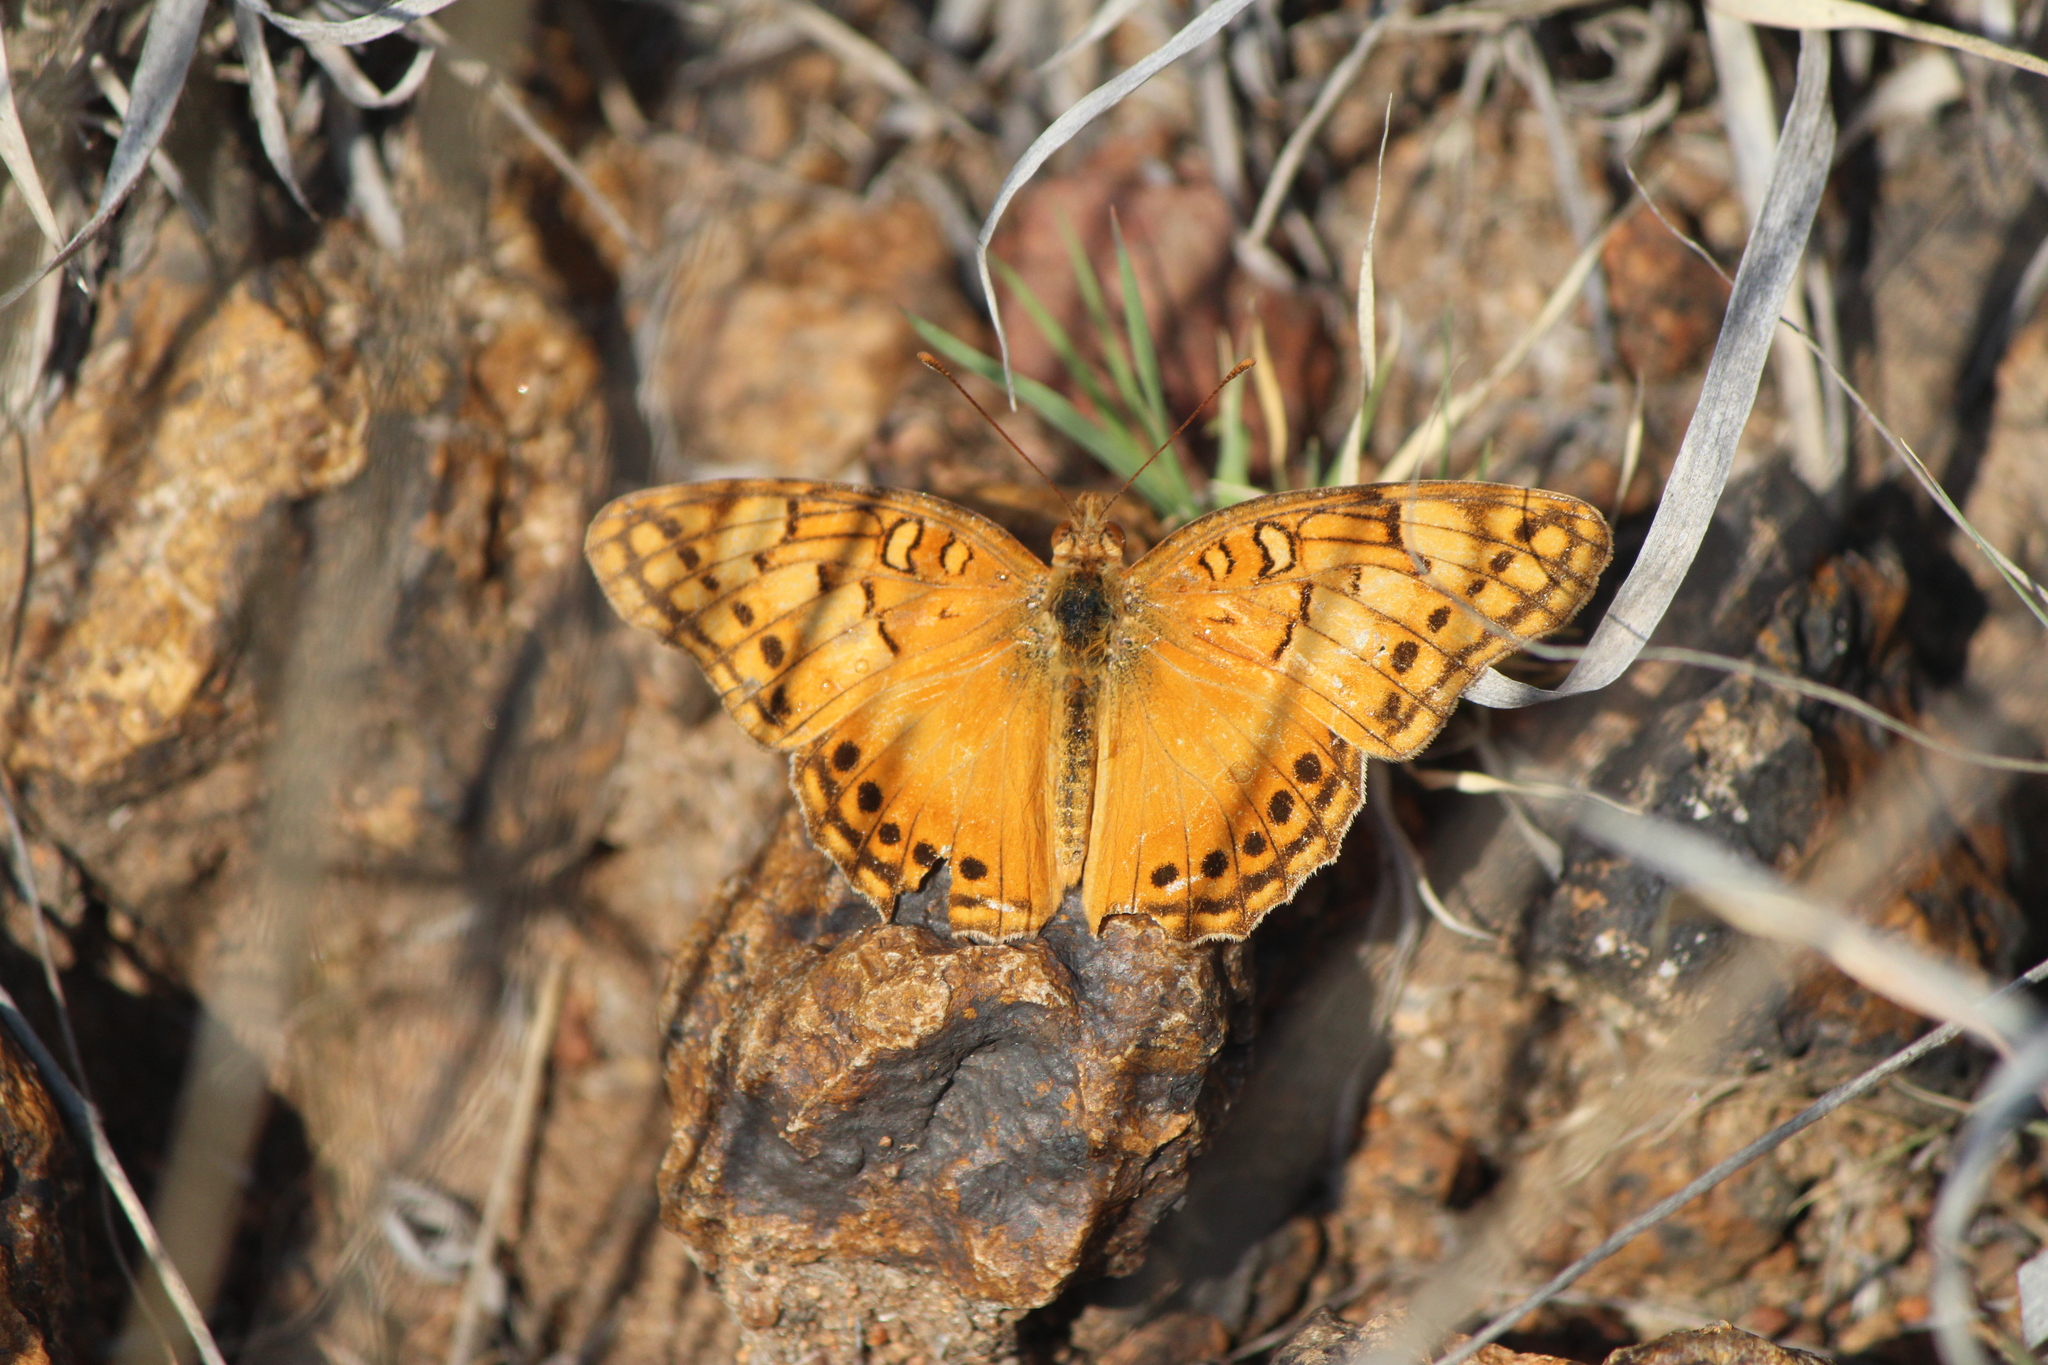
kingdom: Animalia
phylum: Arthropoda
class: Insecta
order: Lepidoptera
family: Nymphalidae
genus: Euptoieta
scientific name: Euptoieta hegesia
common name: Mexican fritillary
